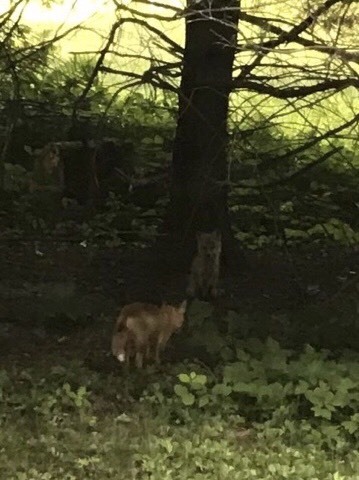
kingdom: Animalia
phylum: Chordata
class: Mammalia
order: Carnivora
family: Canidae
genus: Vulpes
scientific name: Vulpes vulpes
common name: Red fox
